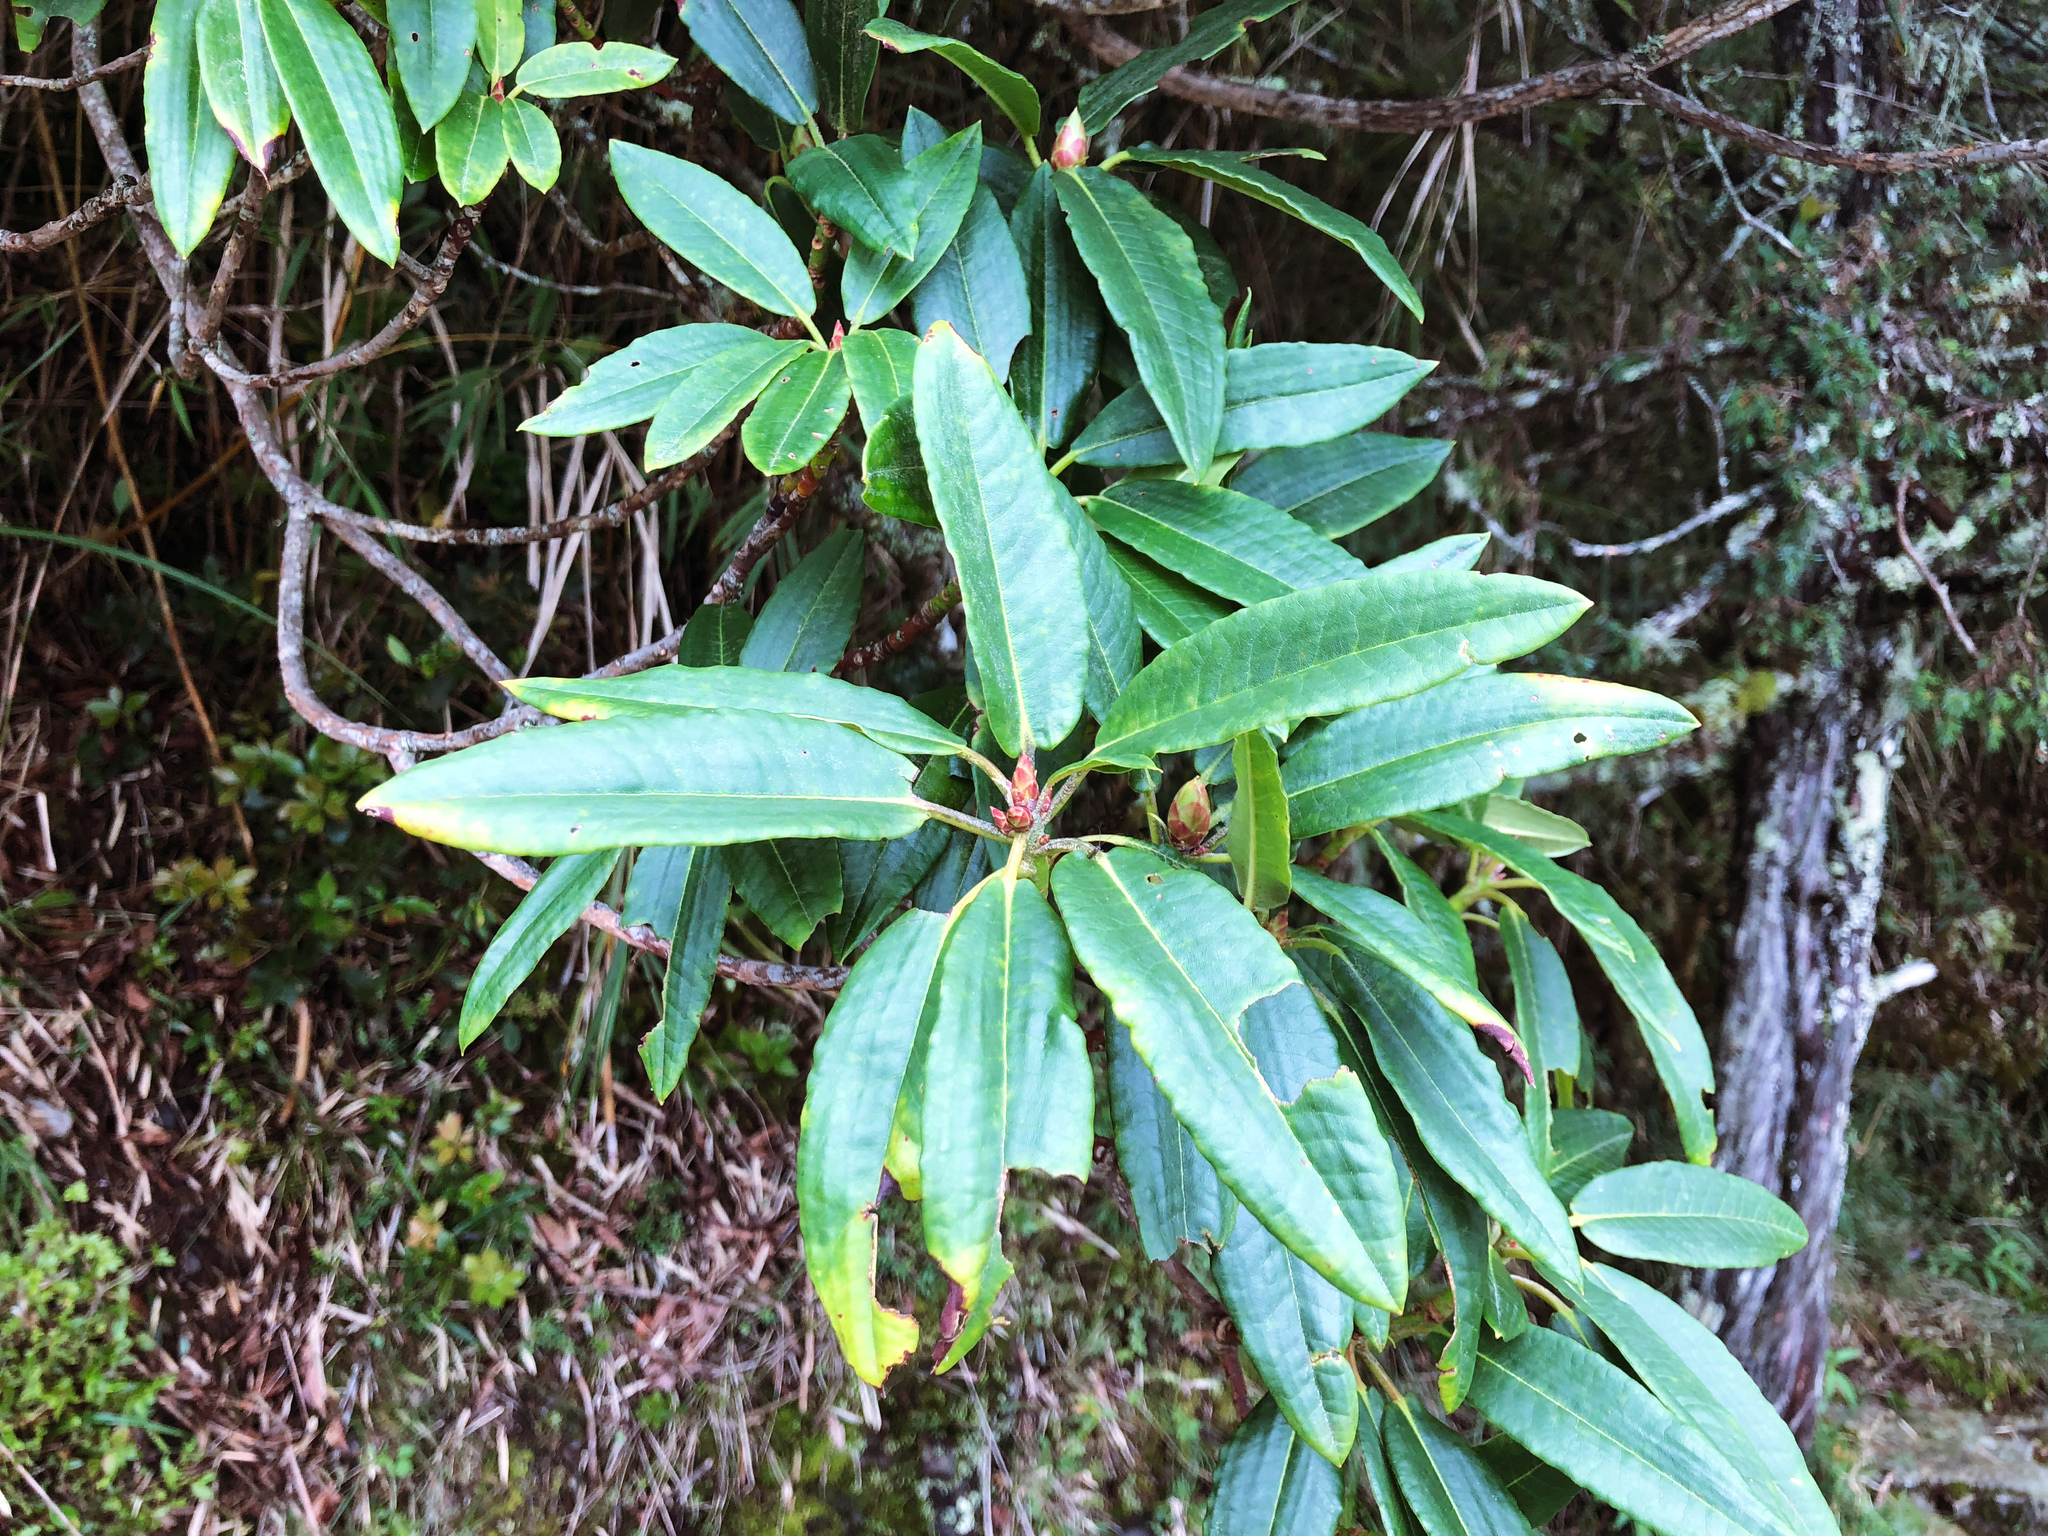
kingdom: Plantae
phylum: Tracheophyta
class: Magnoliopsida
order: Ericales
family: Ericaceae
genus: Rhododendron
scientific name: Rhododendron pseudochrysanthum
